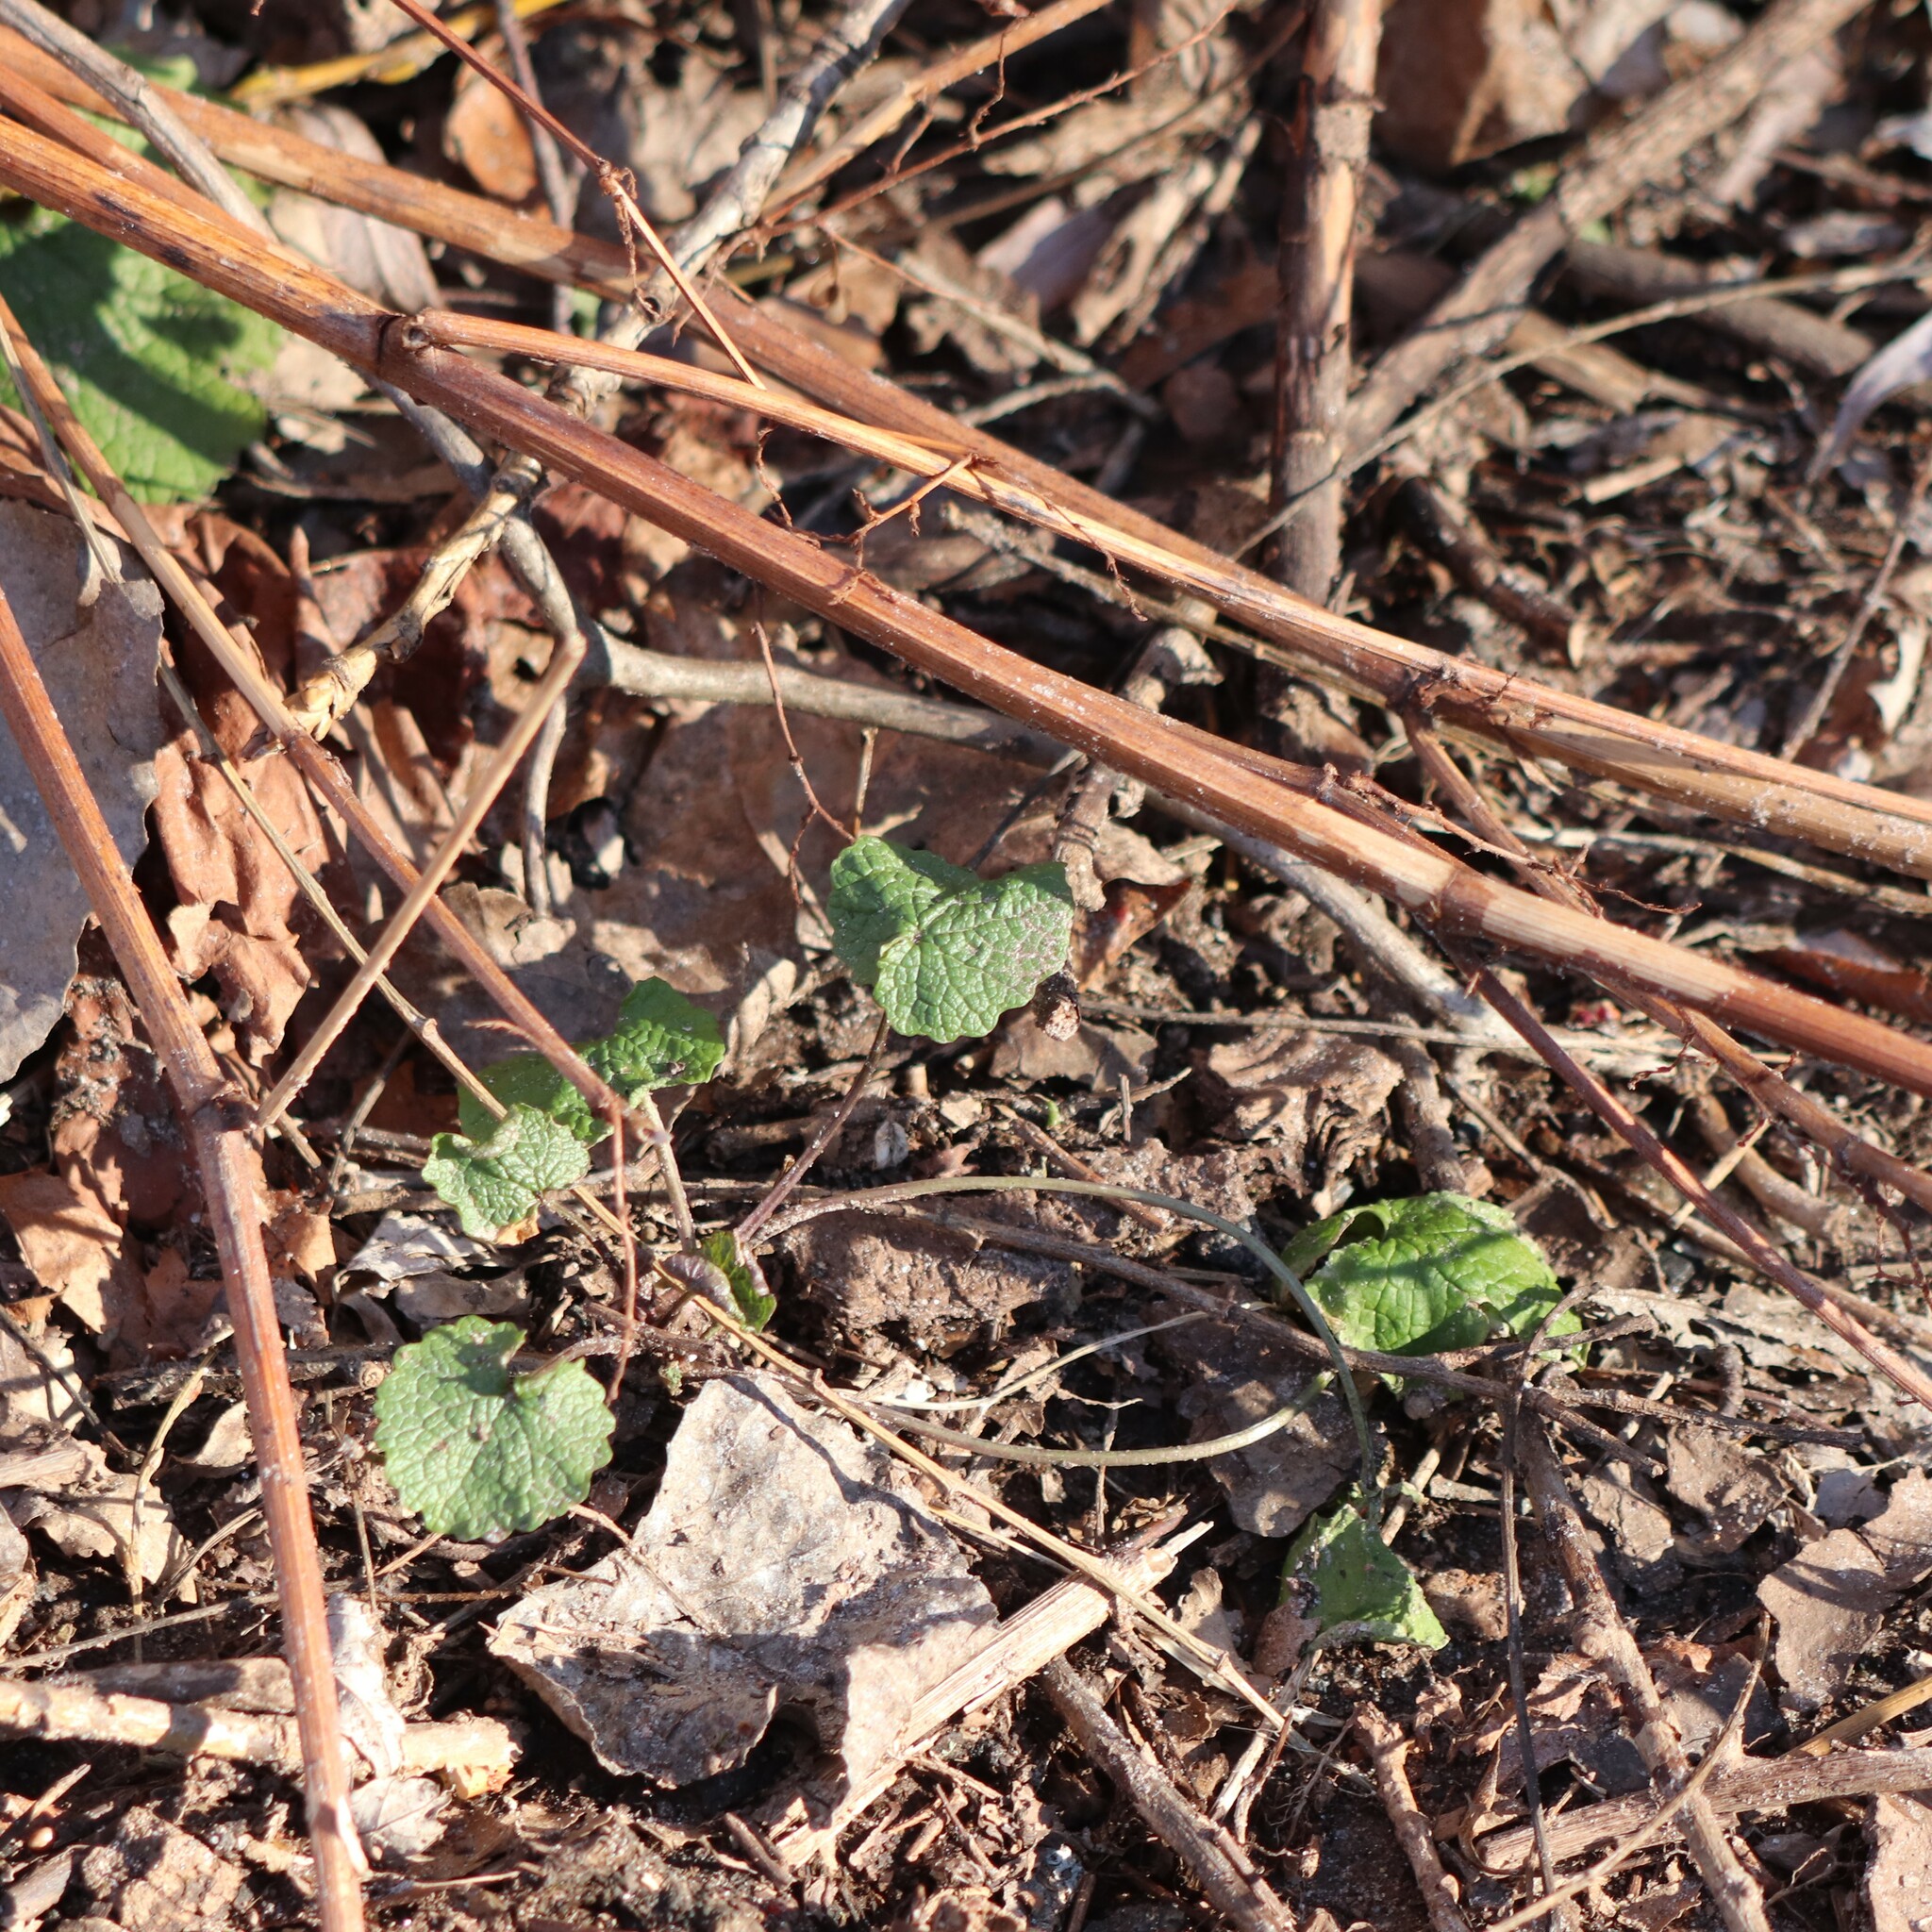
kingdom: Plantae
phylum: Tracheophyta
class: Magnoliopsida
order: Brassicales
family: Brassicaceae
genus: Alliaria
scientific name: Alliaria petiolata
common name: Garlic mustard
